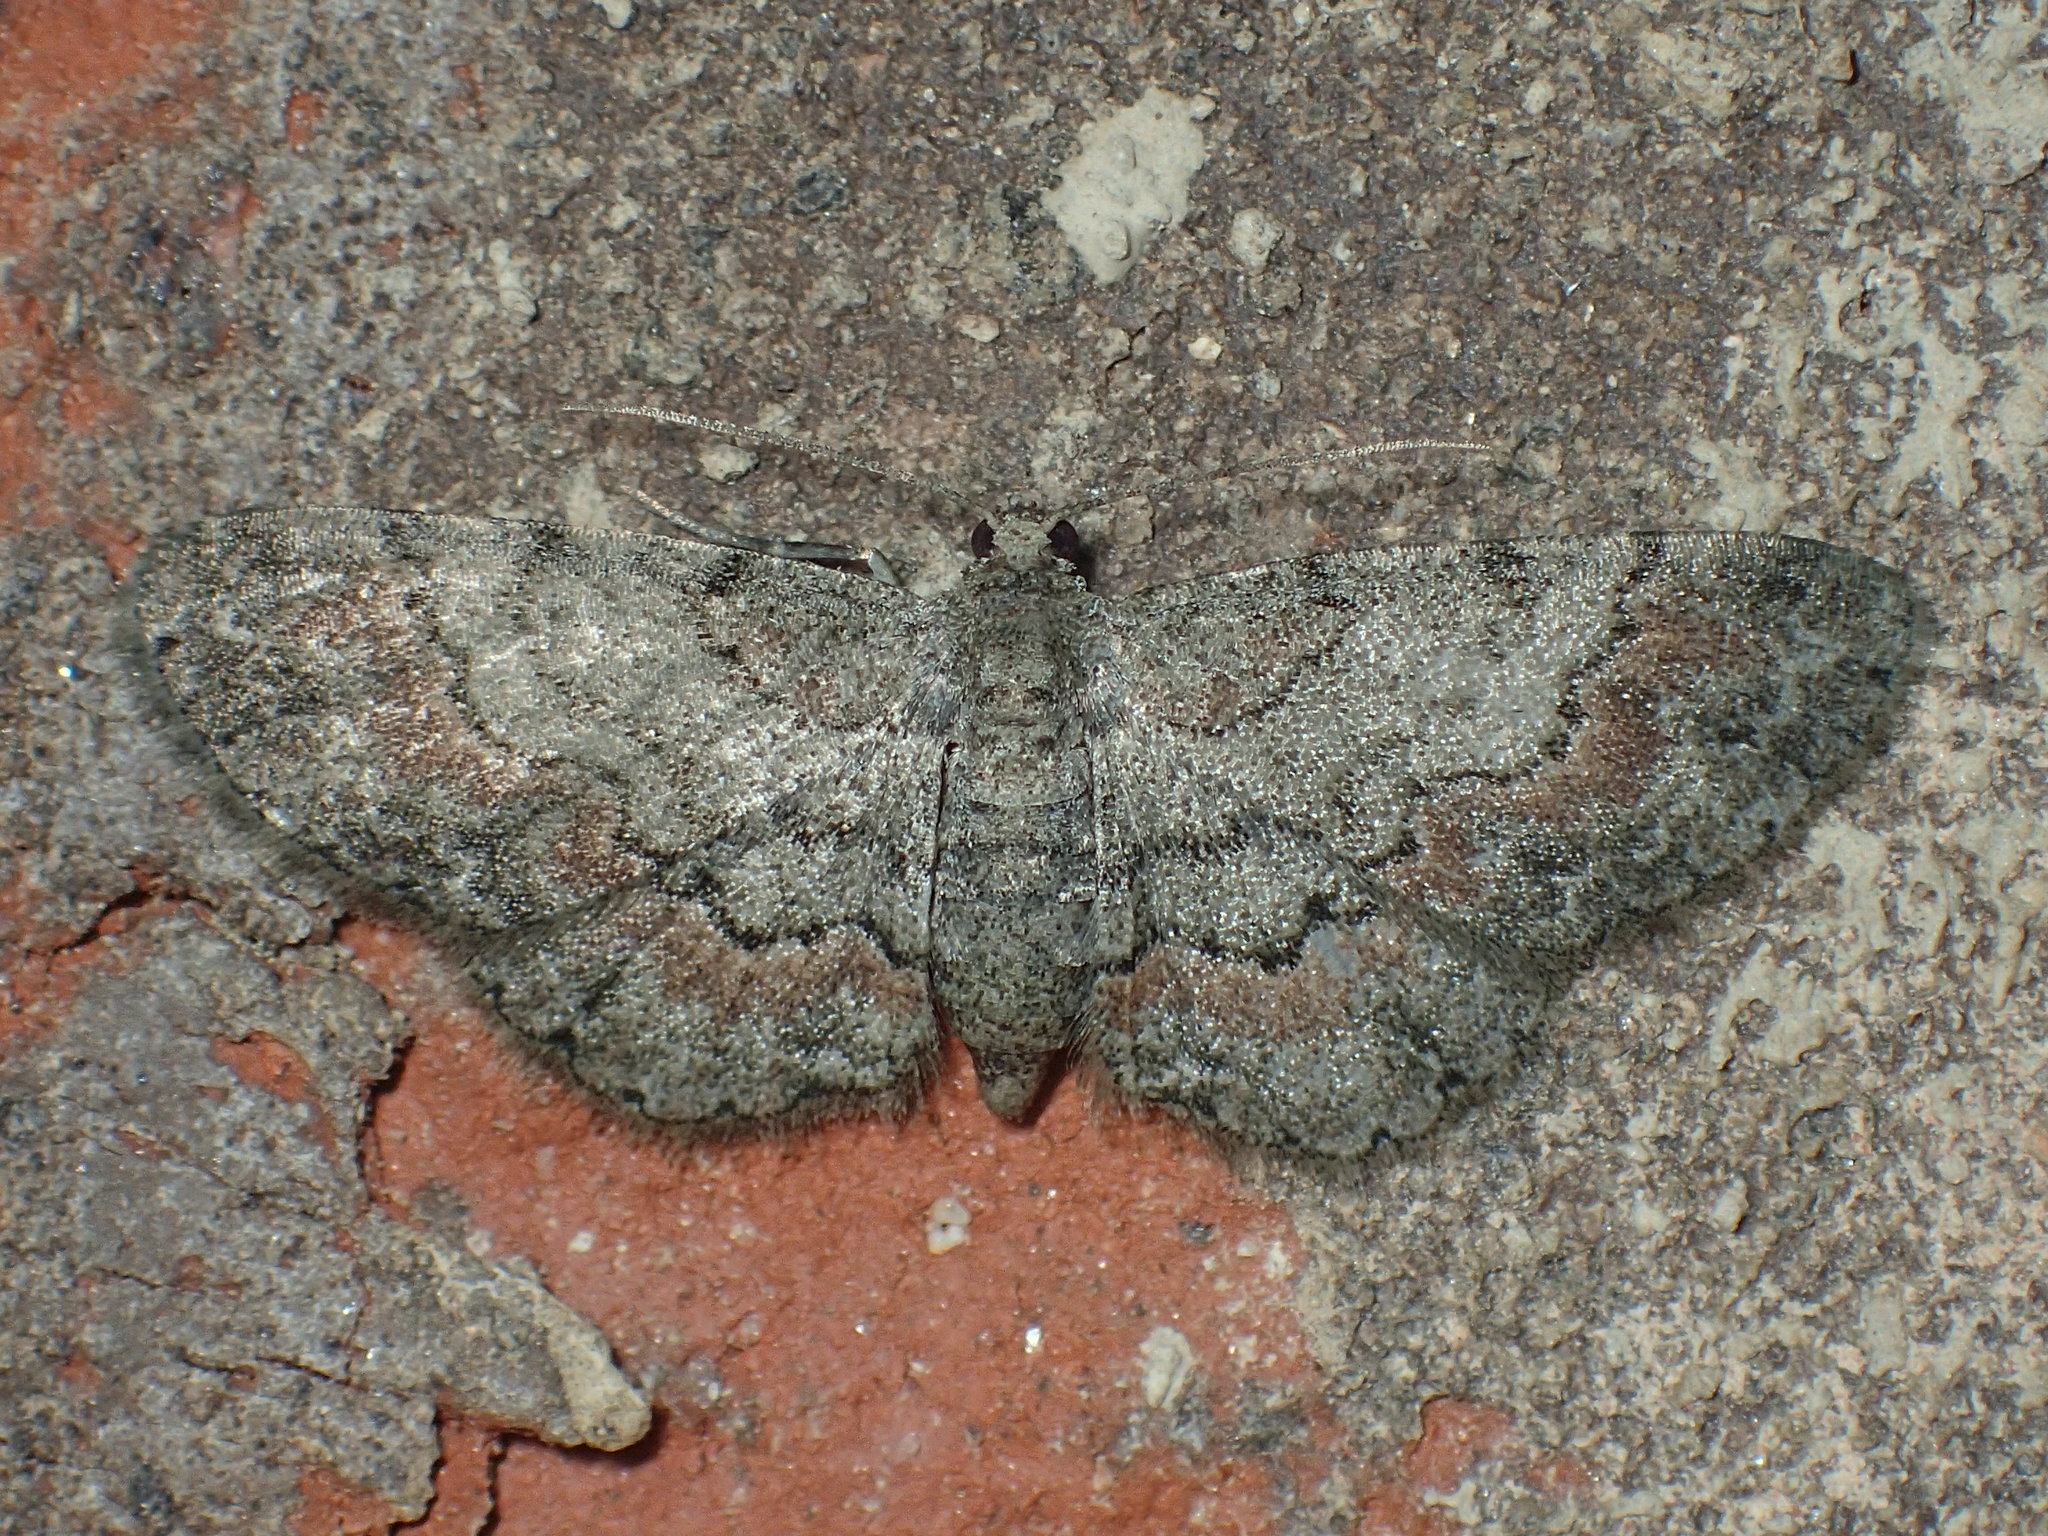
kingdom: Animalia
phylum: Arthropoda
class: Insecta
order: Lepidoptera
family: Geometridae
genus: Glenoides
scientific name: Glenoides texanaria
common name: Texas gray
